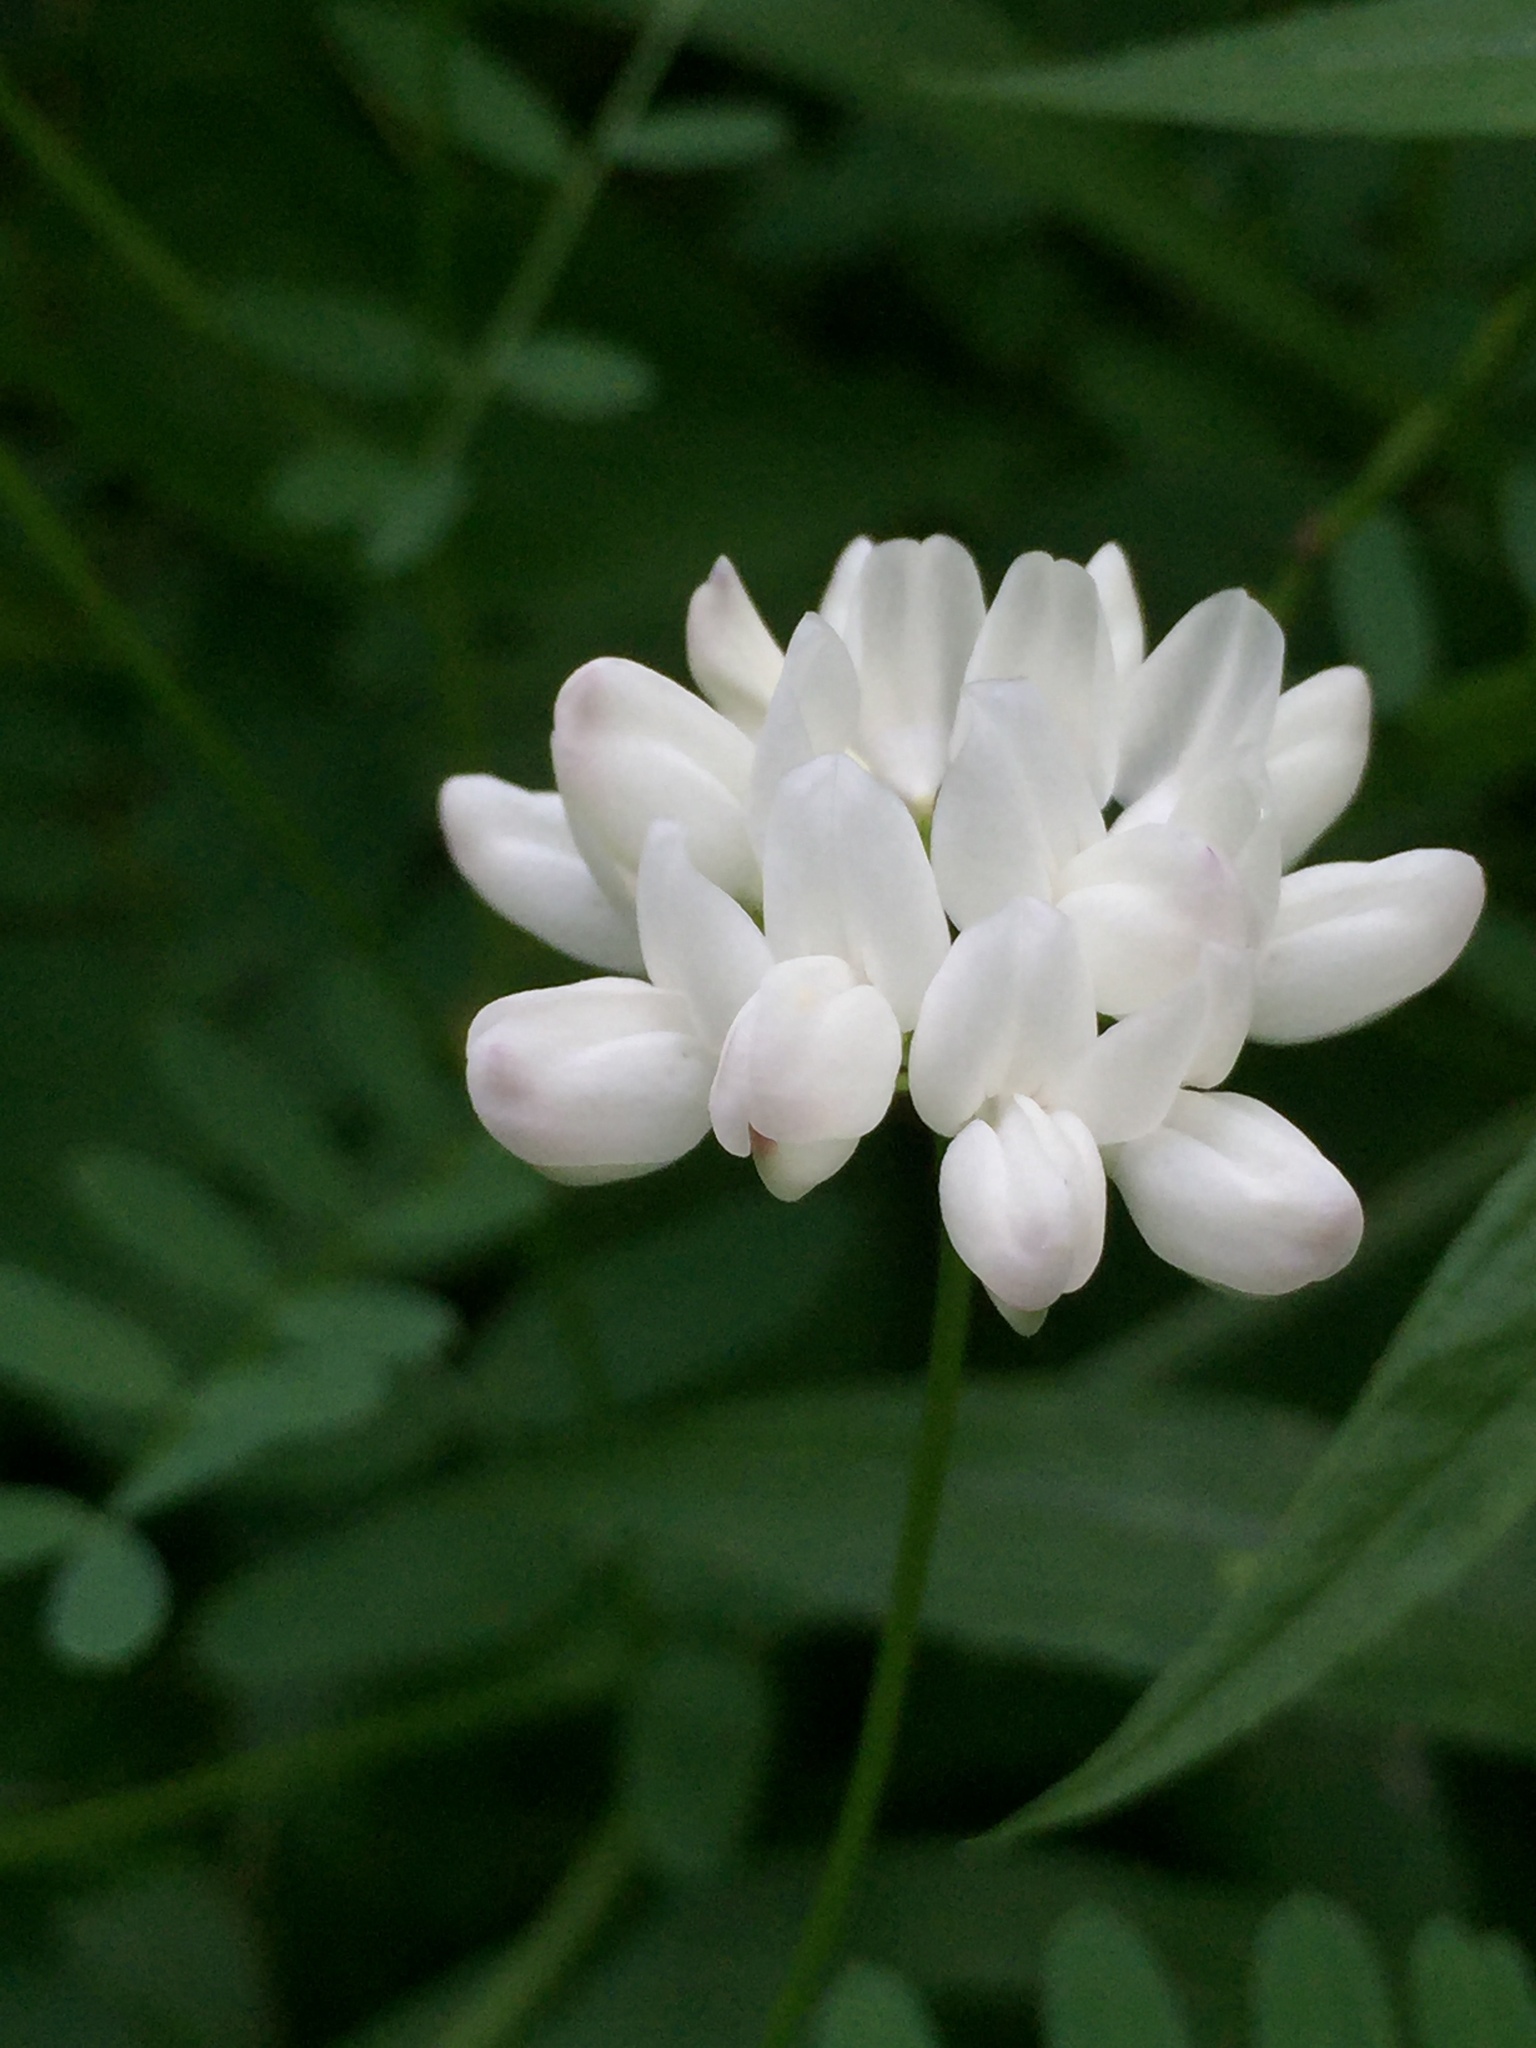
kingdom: Plantae
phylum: Tracheophyta
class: Magnoliopsida
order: Fabales
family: Fabaceae
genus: Coronilla
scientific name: Coronilla varia
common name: Crownvetch
